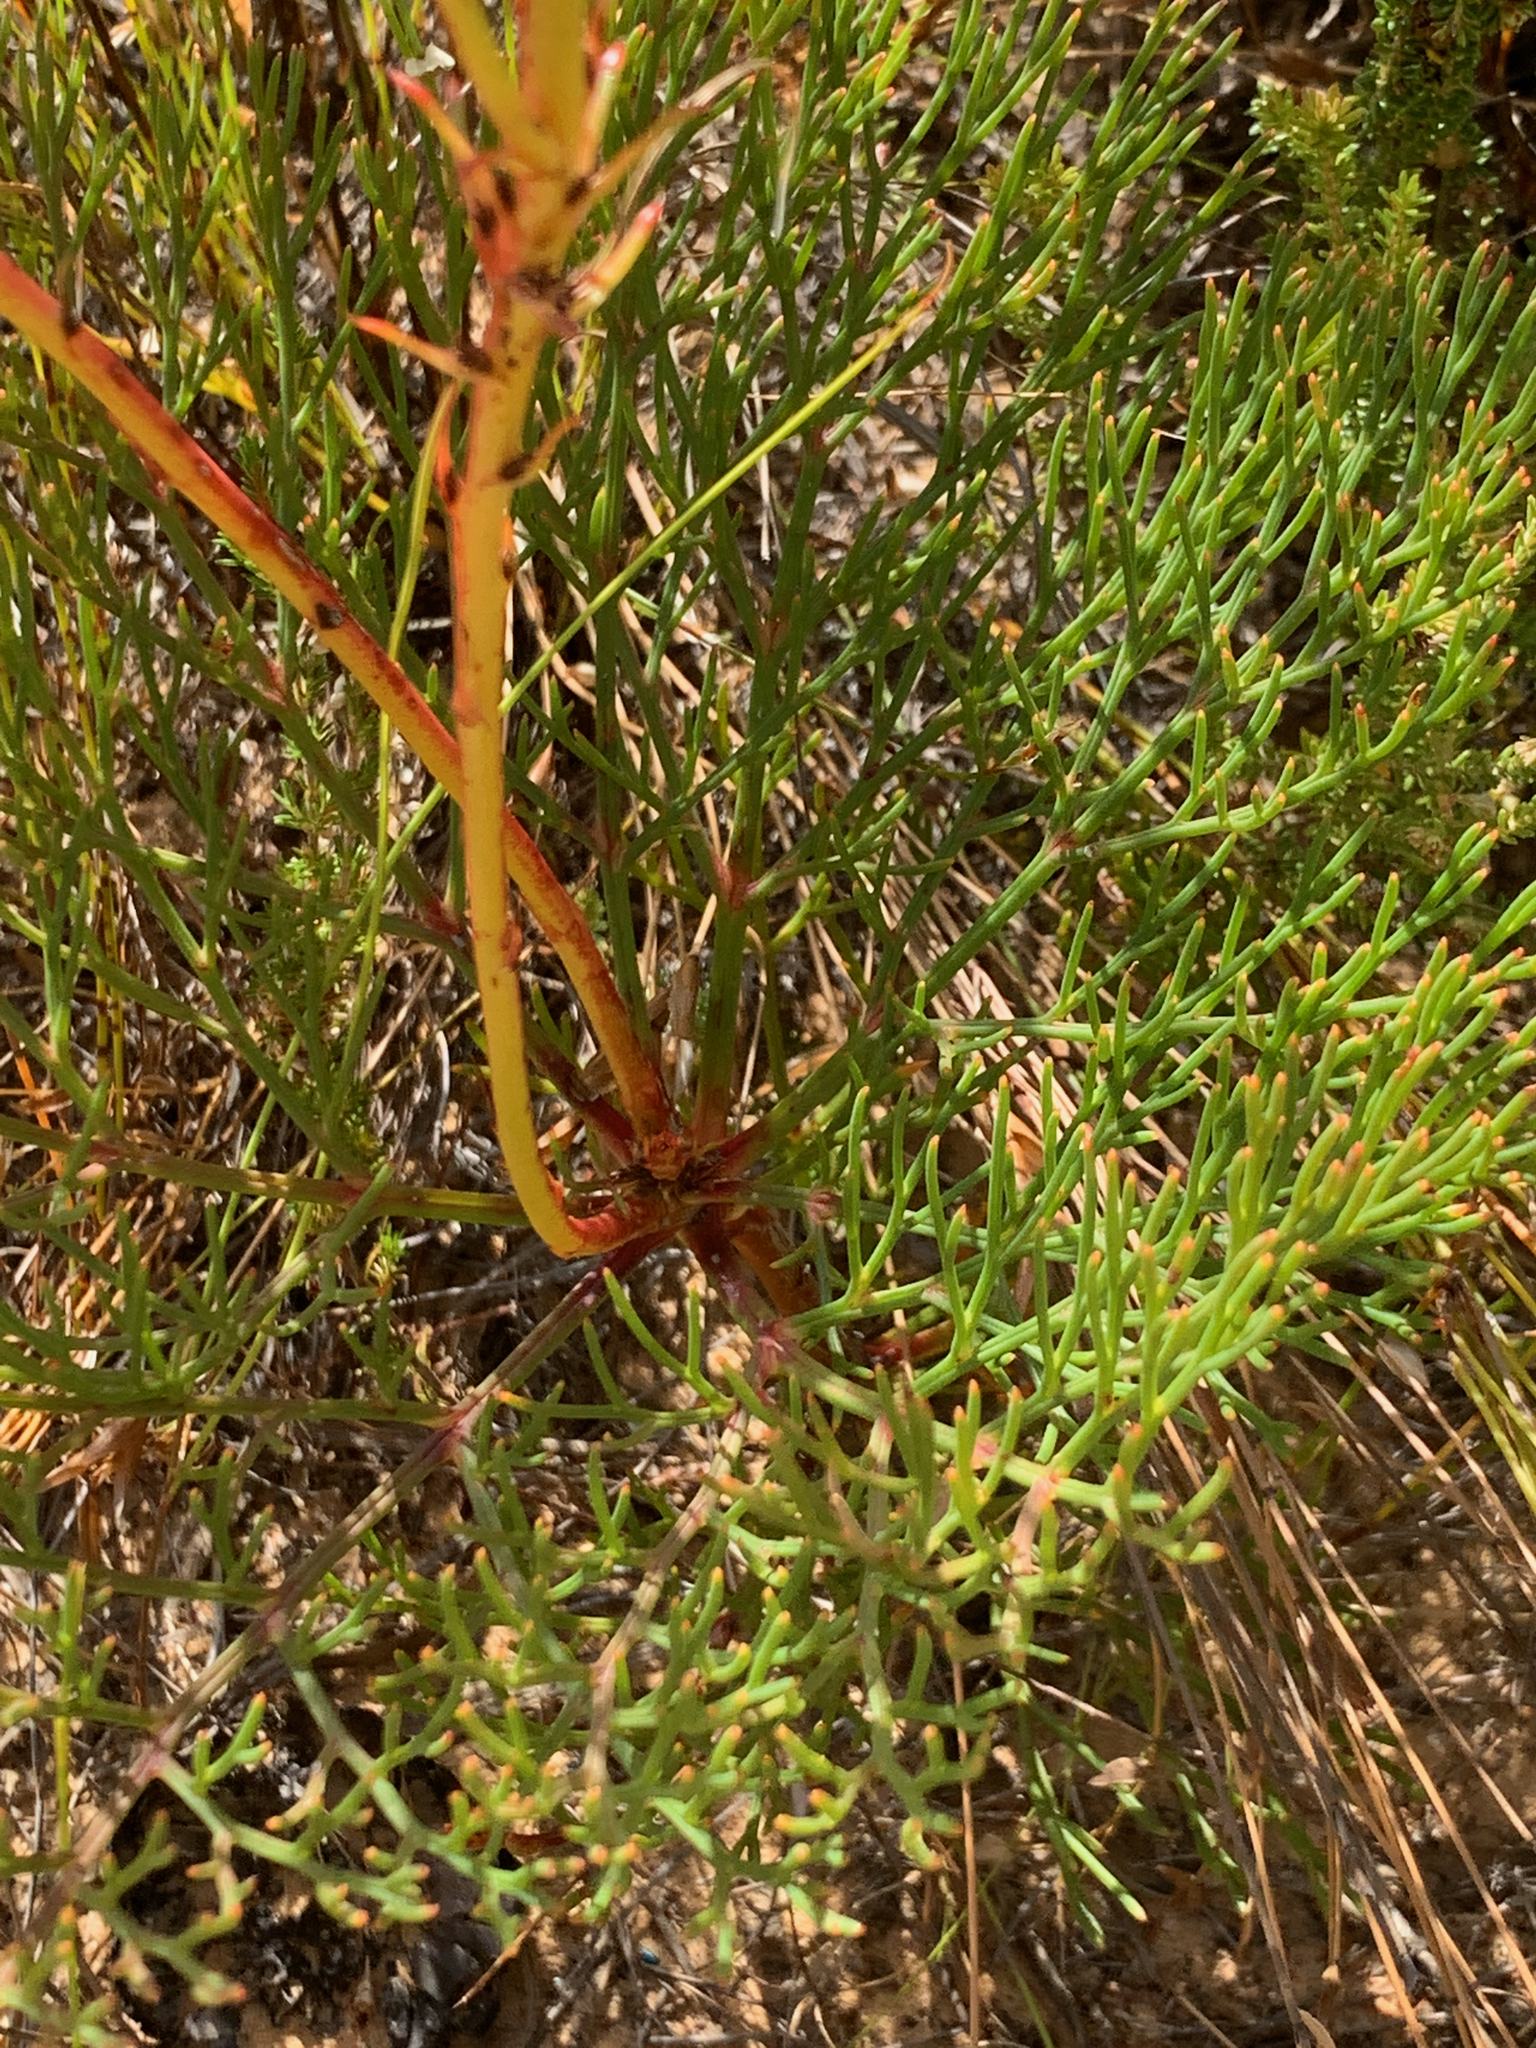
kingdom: Plantae
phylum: Tracheophyta
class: Magnoliopsida
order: Proteales
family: Proteaceae
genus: Serruria
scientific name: Serruria elongata
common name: Long-stalk spiderhead
